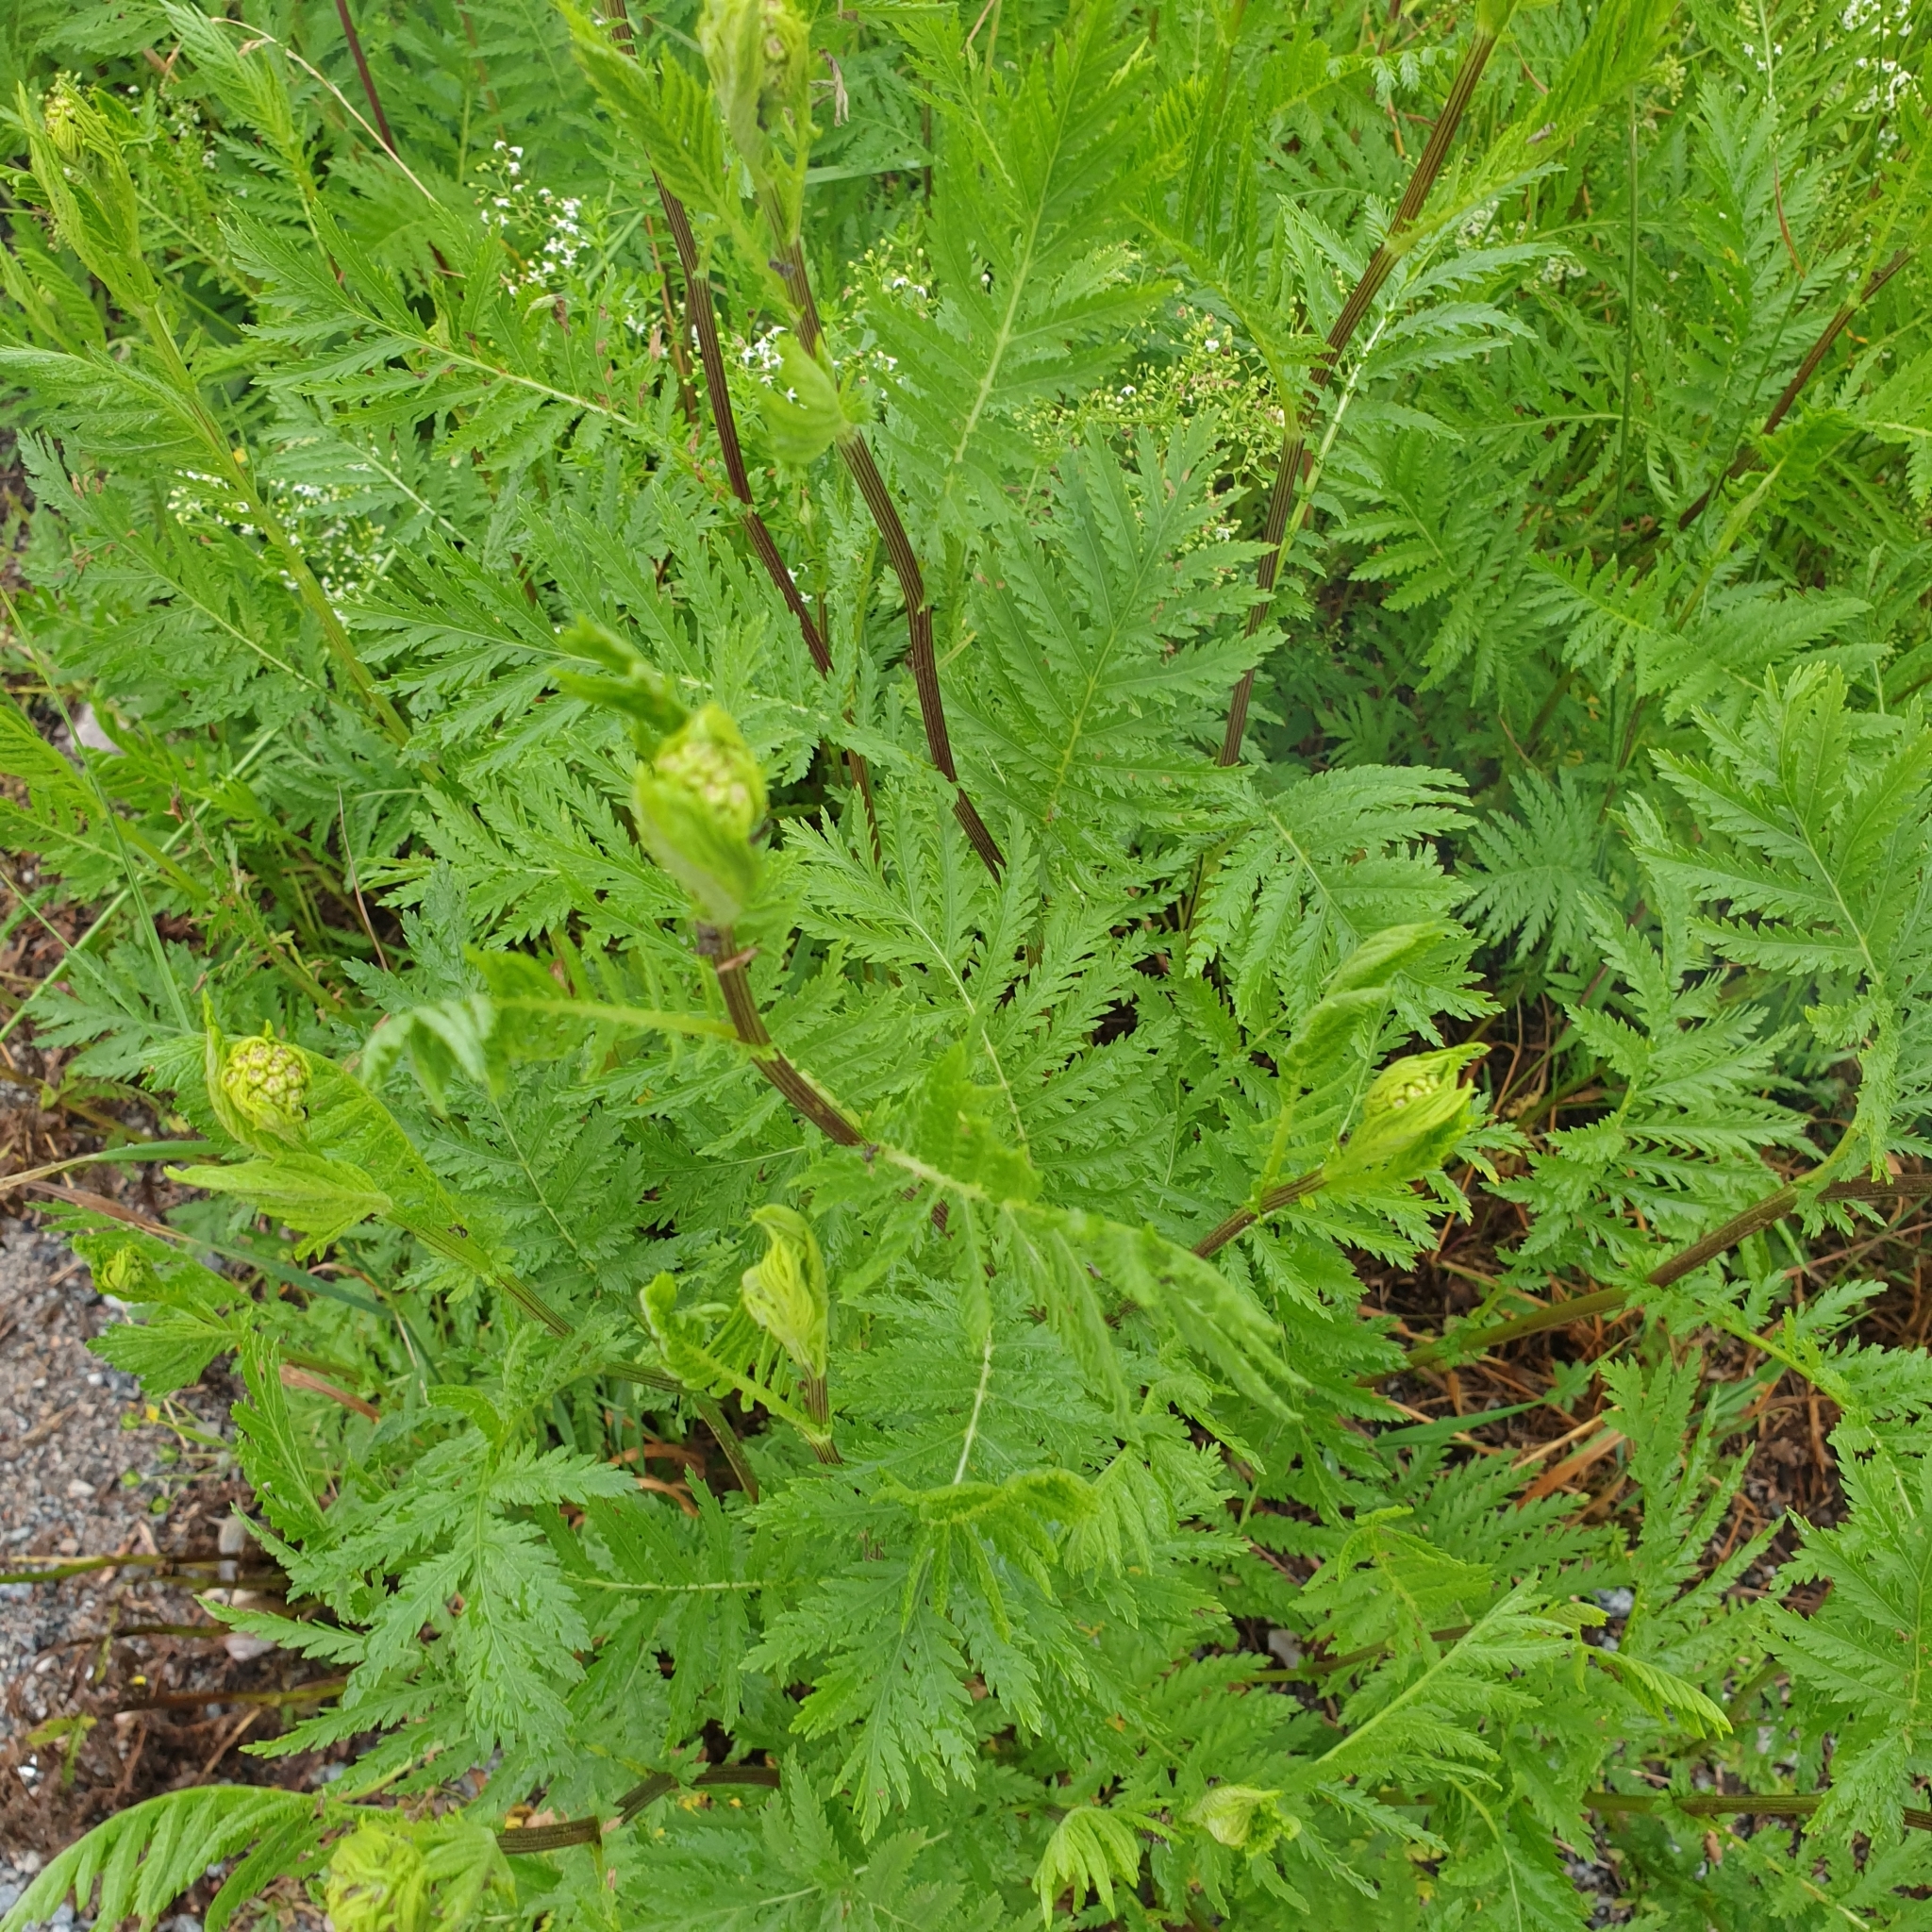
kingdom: Plantae
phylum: Tracheophyta
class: Magnoliopsida
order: Asterales
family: Asteraceae
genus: Tanacetum
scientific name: Tanacetum vulgare
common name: Common tansy
